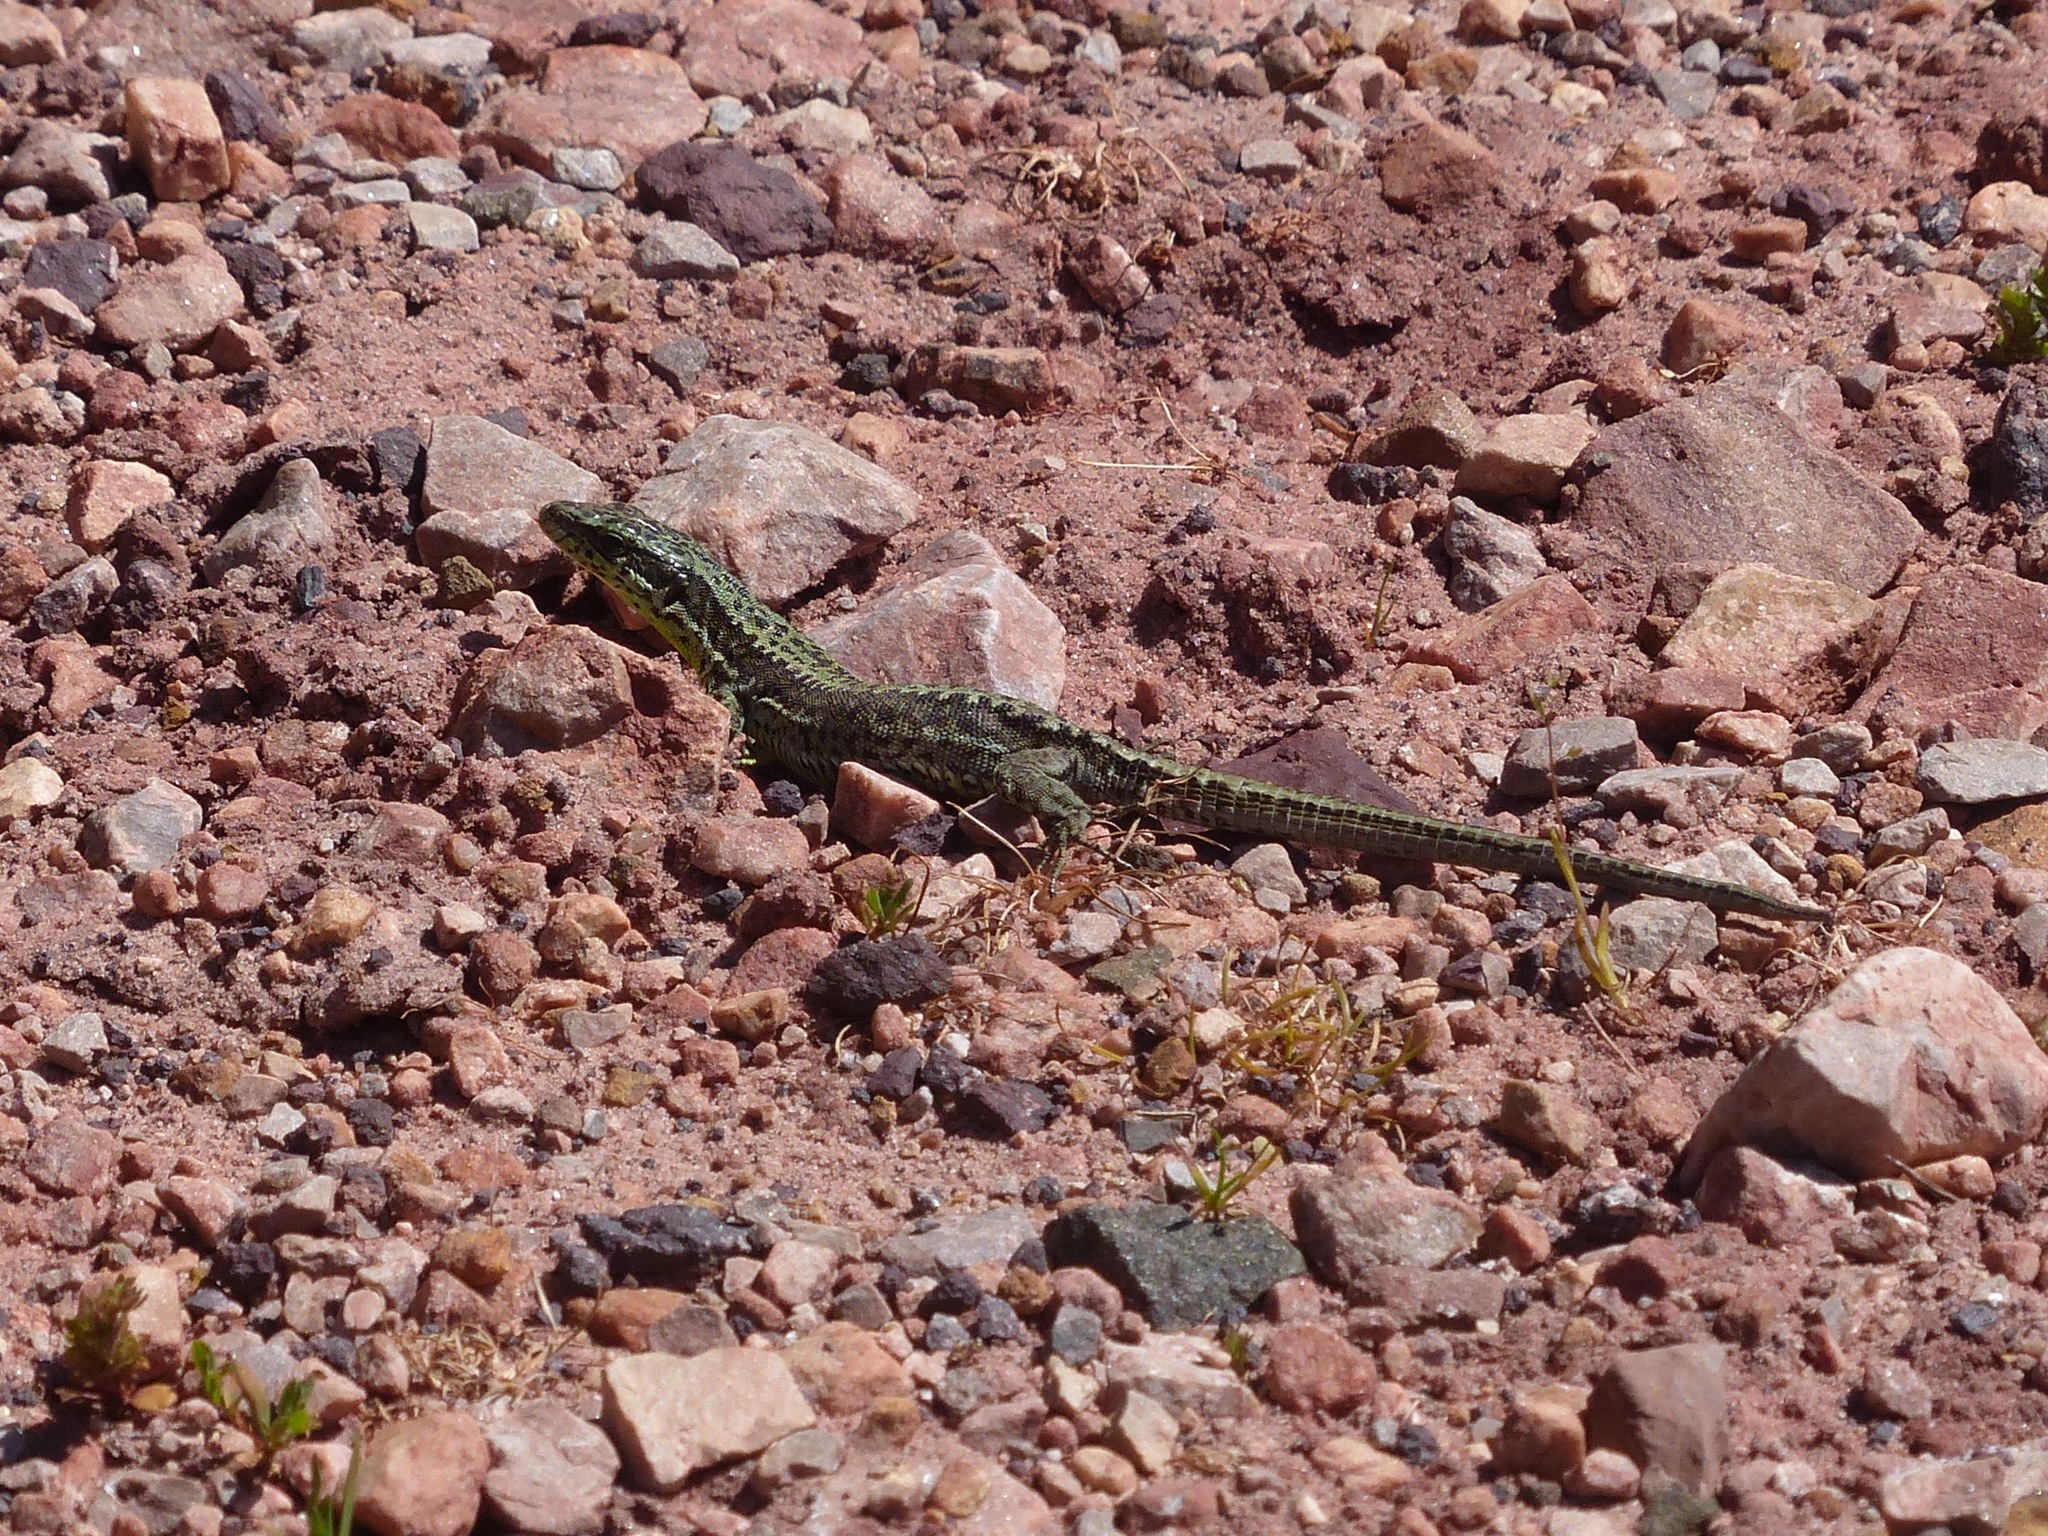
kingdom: Animalia
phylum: Chordata
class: Squamata
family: Lacertidae
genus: Iberolacerta
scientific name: Iberolacerta monticola
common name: Iberian mountain lizard
